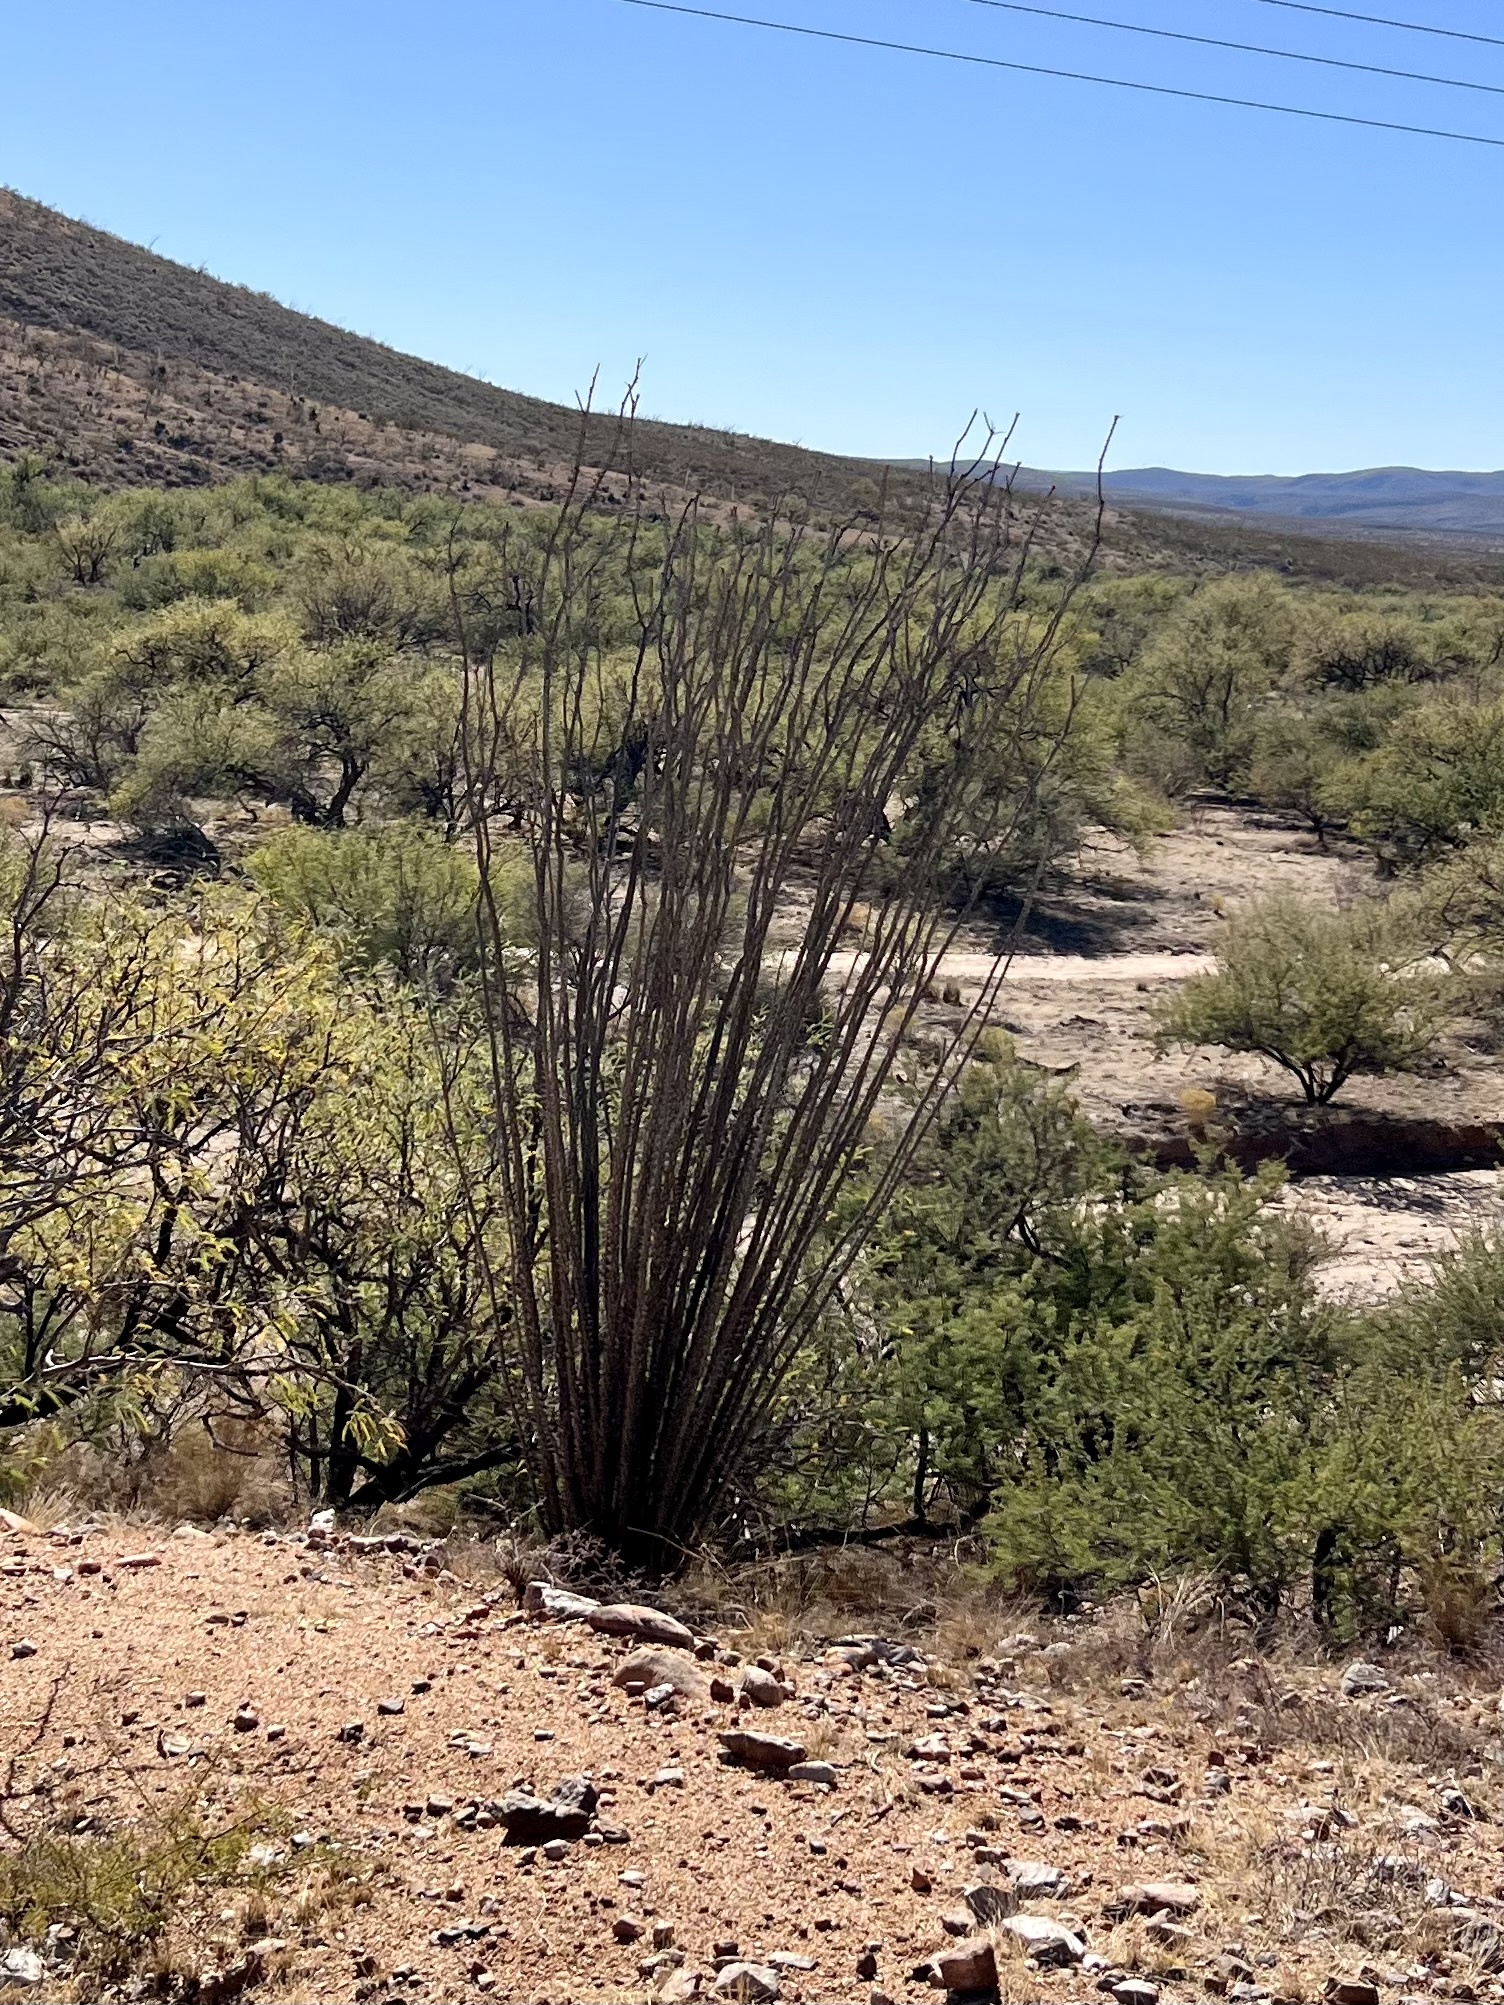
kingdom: Plantae
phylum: Tracheophyta
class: Magnoliopsida
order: Ericales
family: Fouquieriaceae
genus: Fouquieria
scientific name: Fouquieria splendens
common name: Vine-cactus
